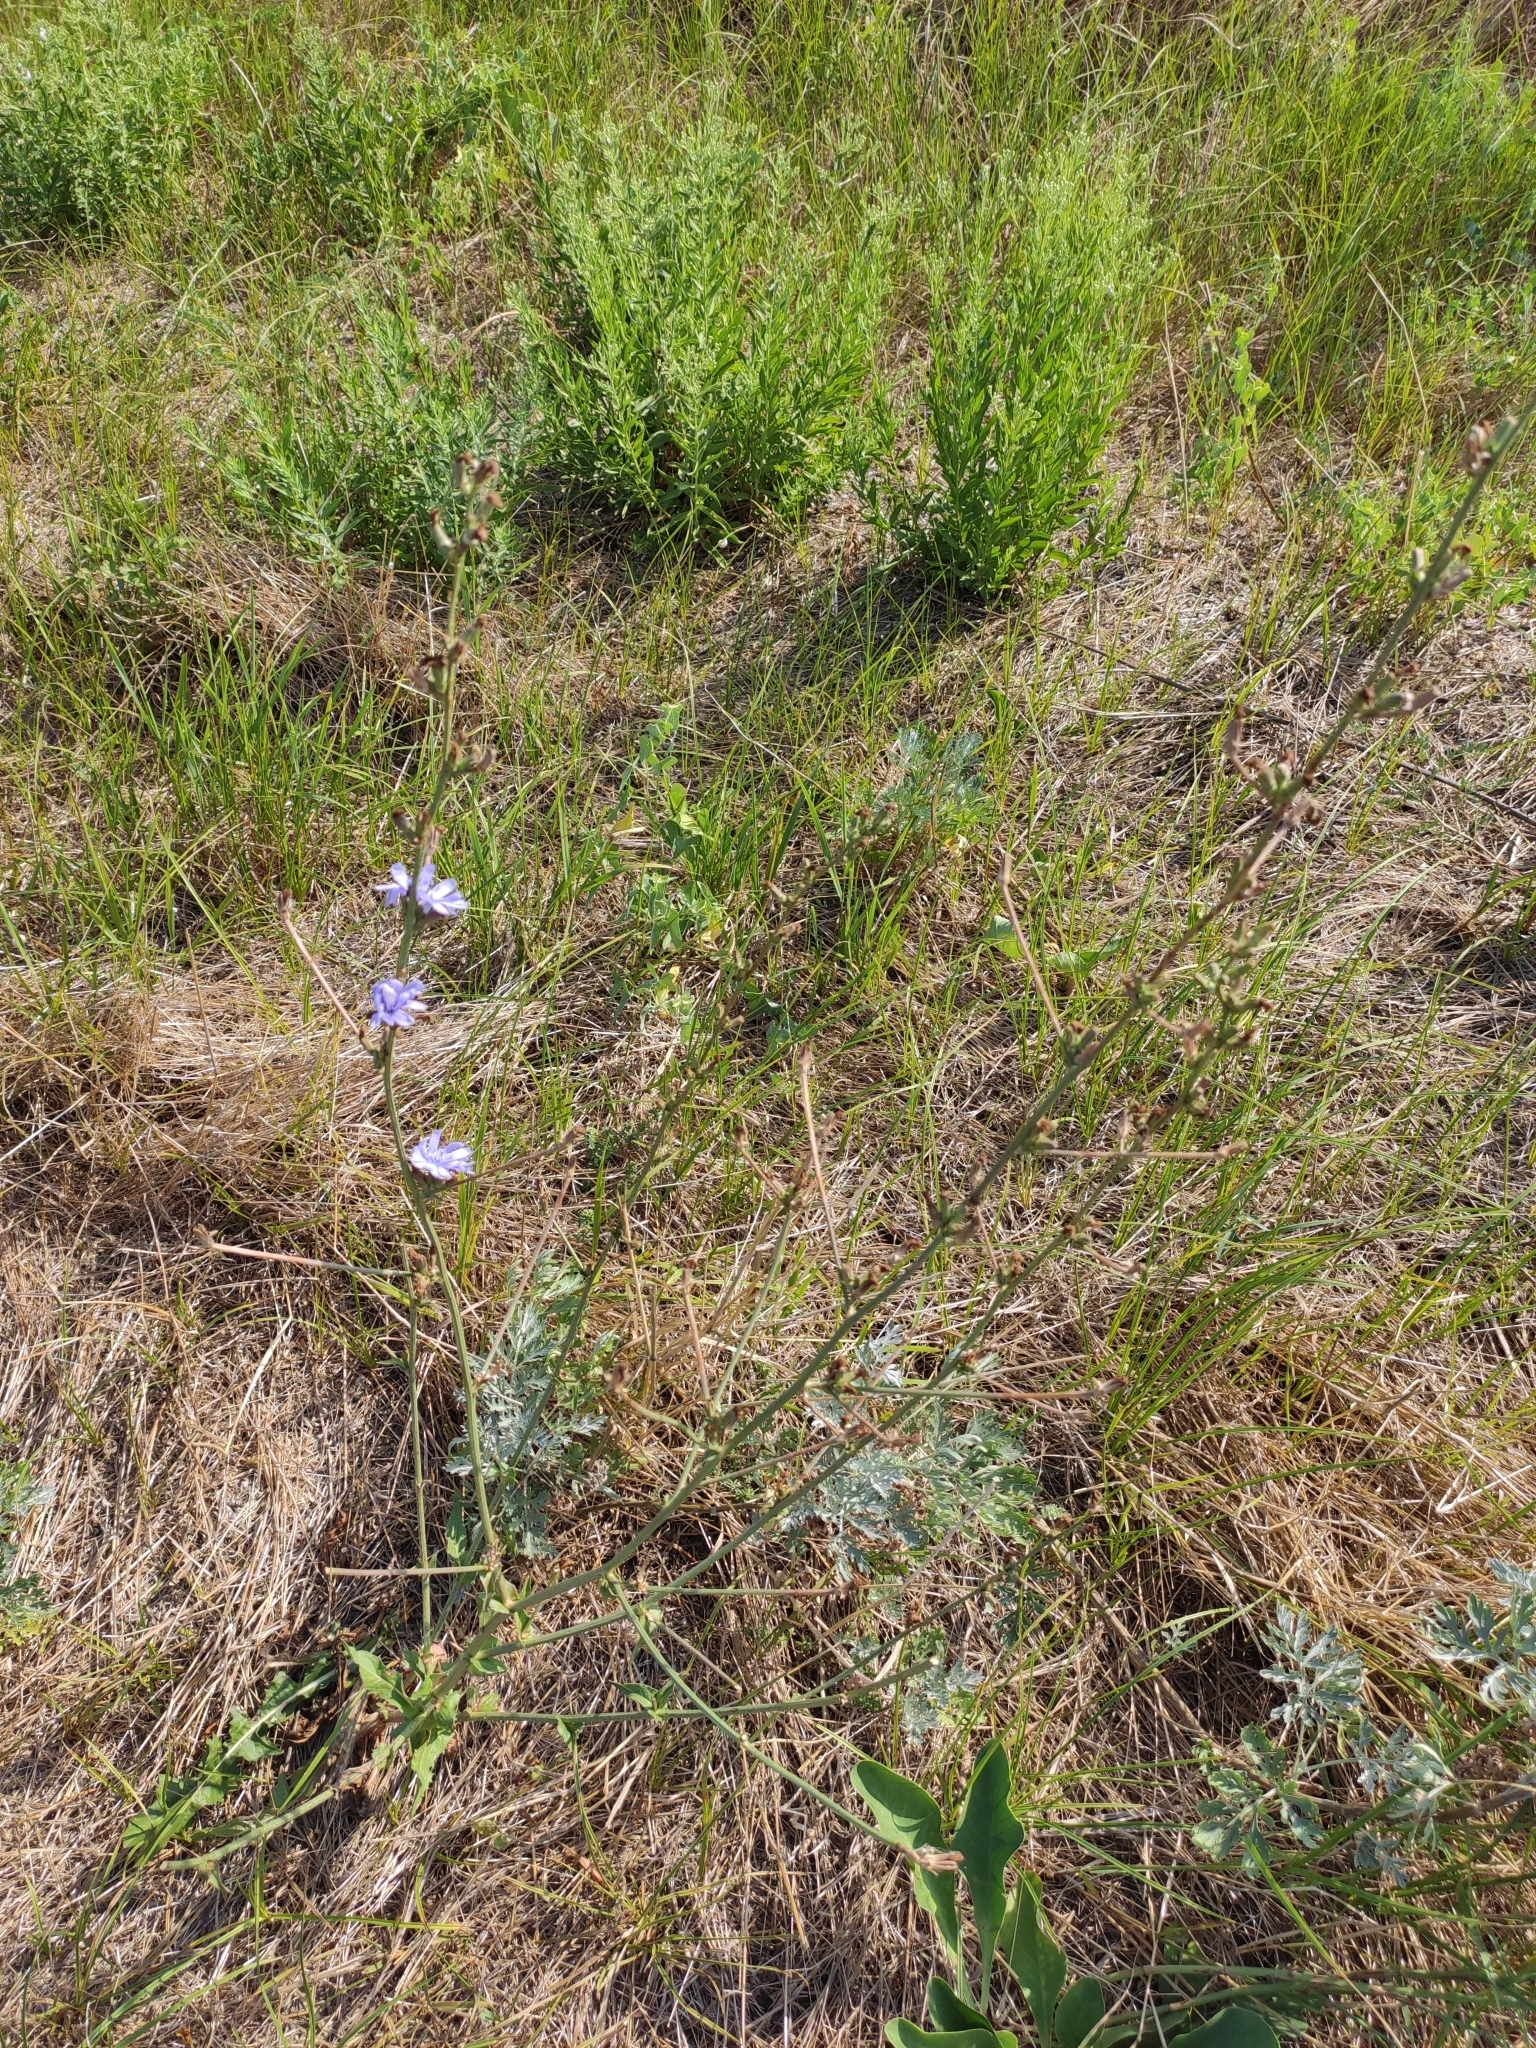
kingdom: Plantae
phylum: Tracheophyta
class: Magnoliopsida
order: Asterales
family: Asteraceae
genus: Cichorium
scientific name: Cichorium intybus
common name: Chicory
